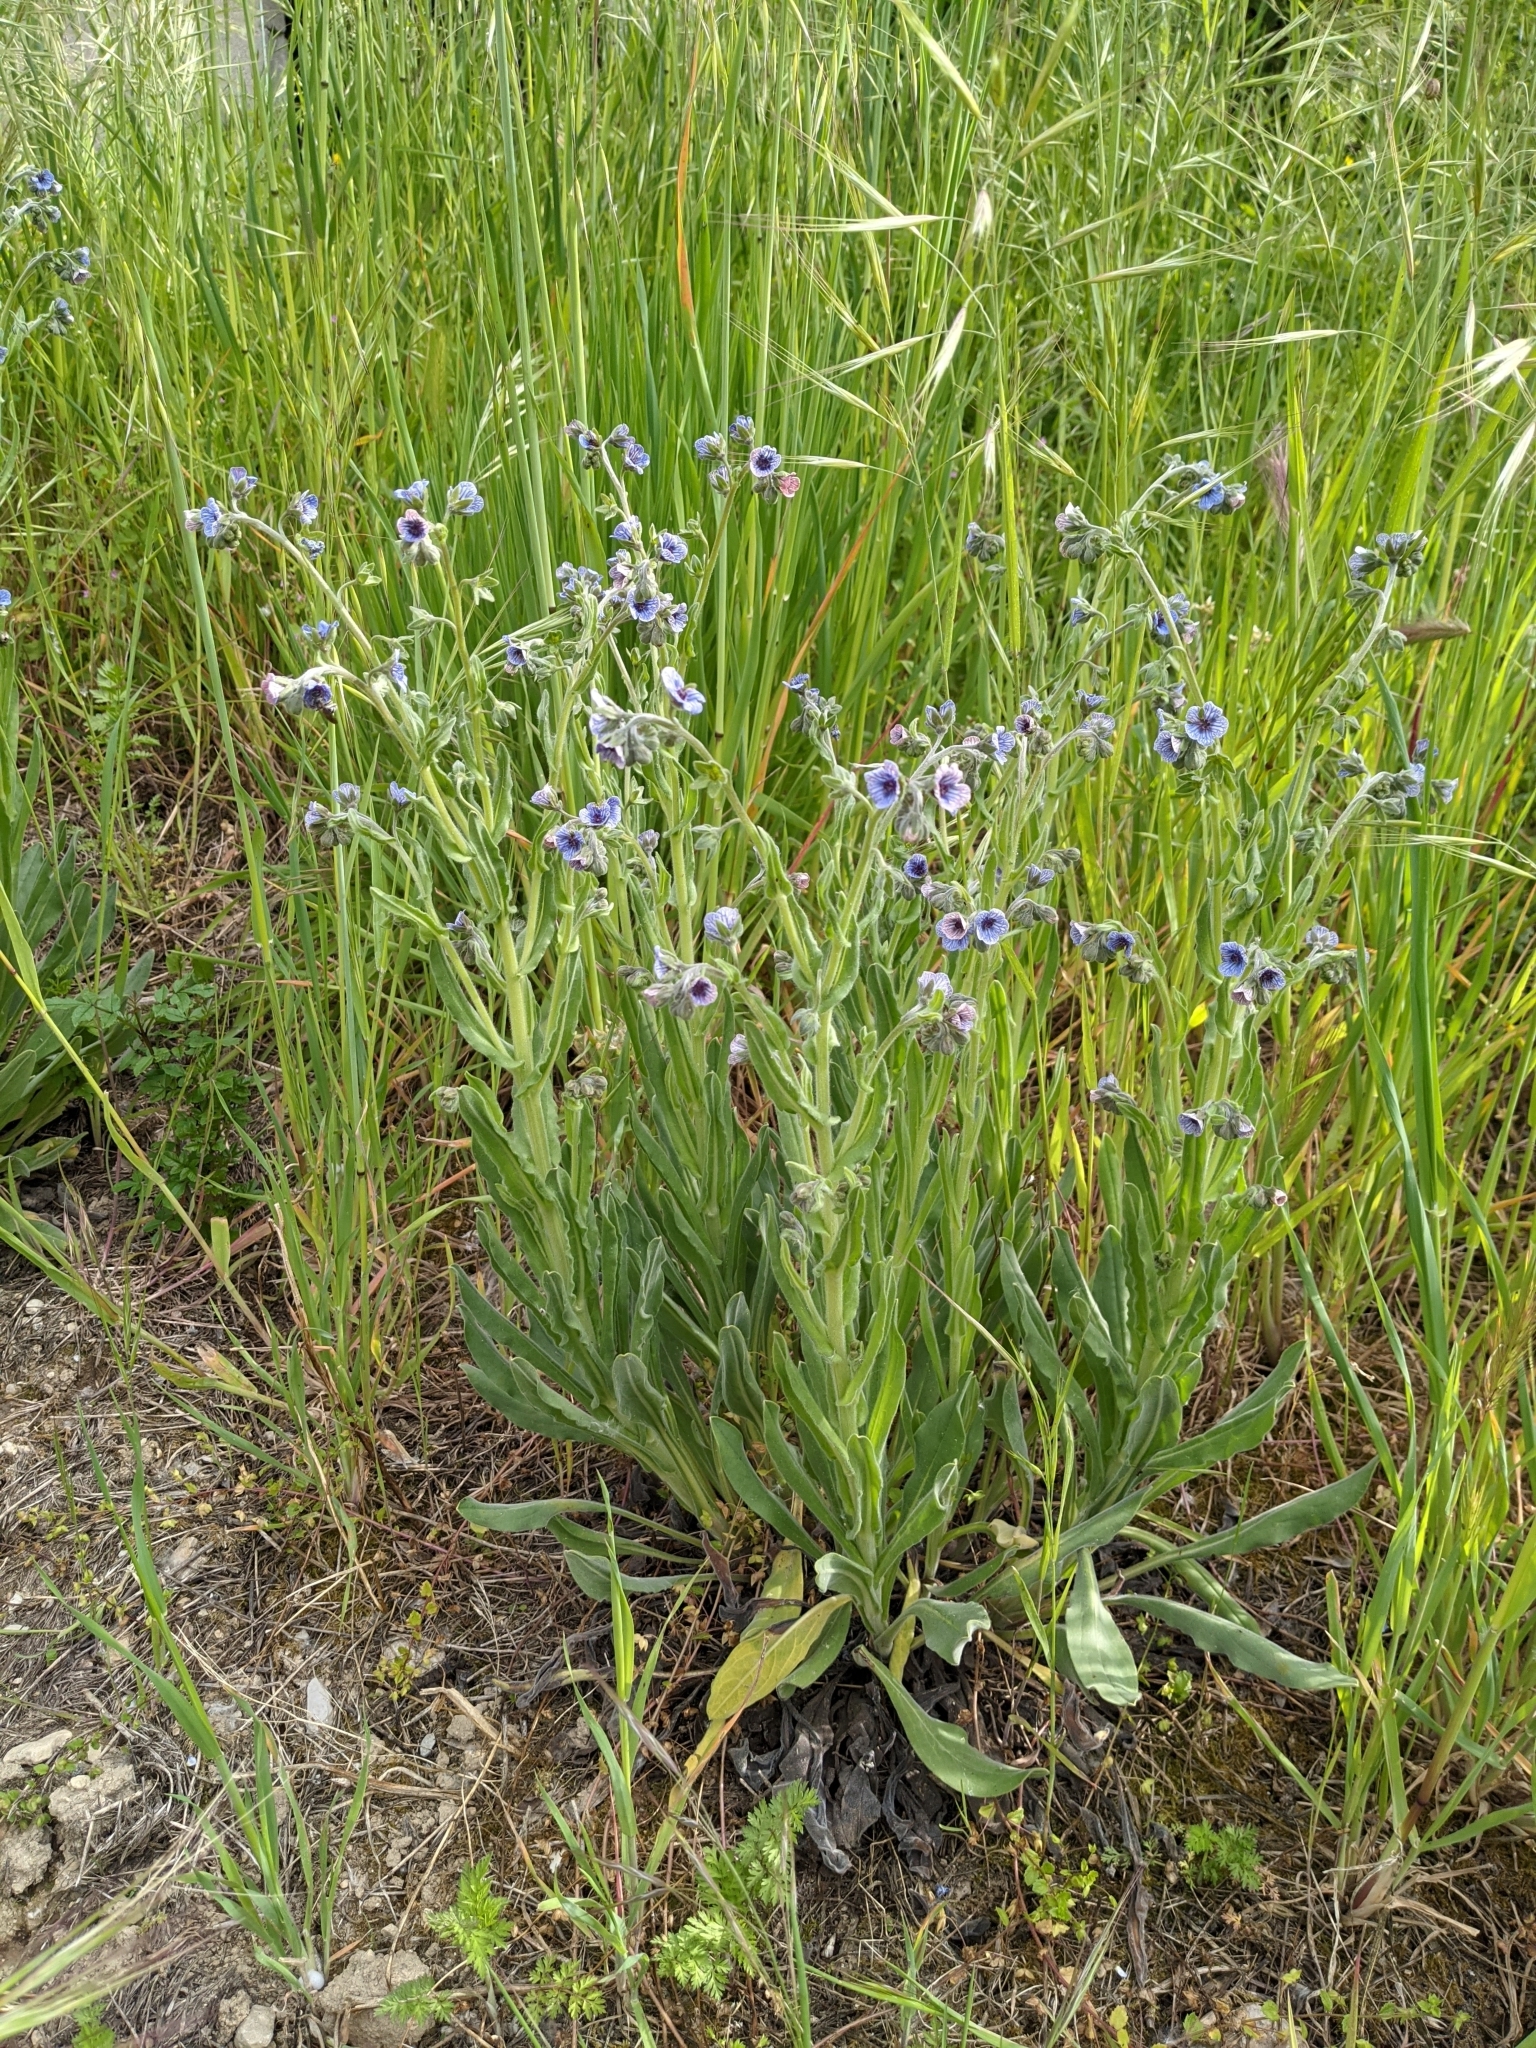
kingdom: Plantae
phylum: Tracheophyta
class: Magnoliopsida
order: Boraginales
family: Boraginaceae
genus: Cynoglossum
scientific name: Cynoglossum creticum
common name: Blue hound's tongue
